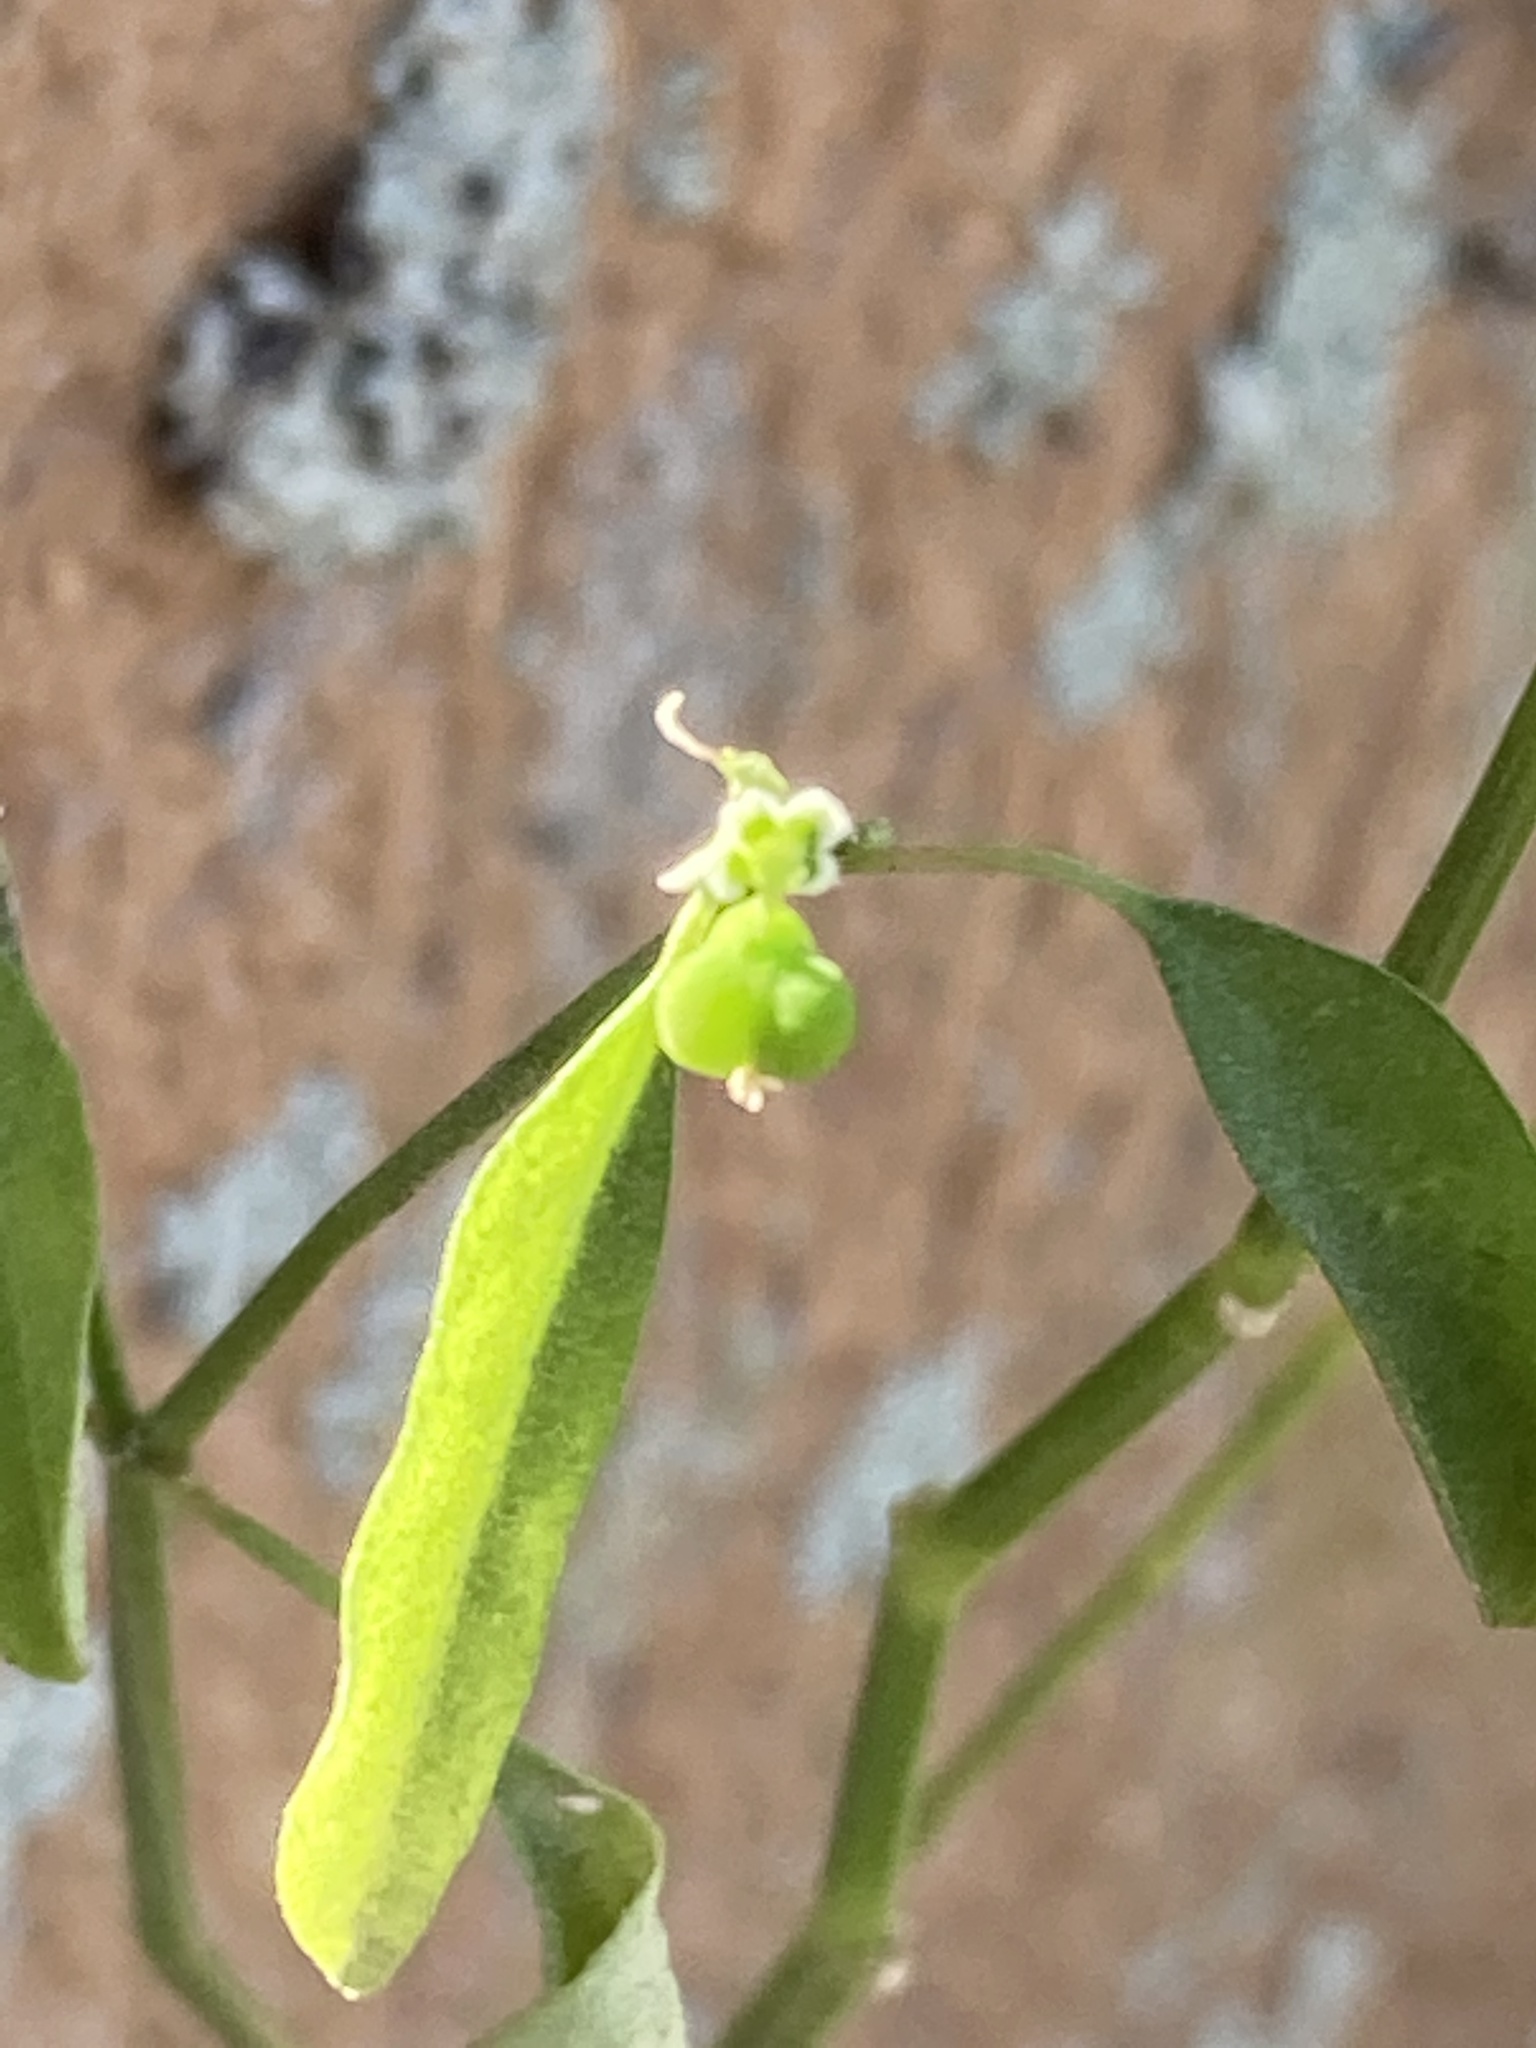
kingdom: Plantae
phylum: Tracheophyta
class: Magnoliopsida
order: Malpighiales
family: Euphorbiaceae
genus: Euphorbia
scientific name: Euphorbia graminea
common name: Grassleaf spurge
